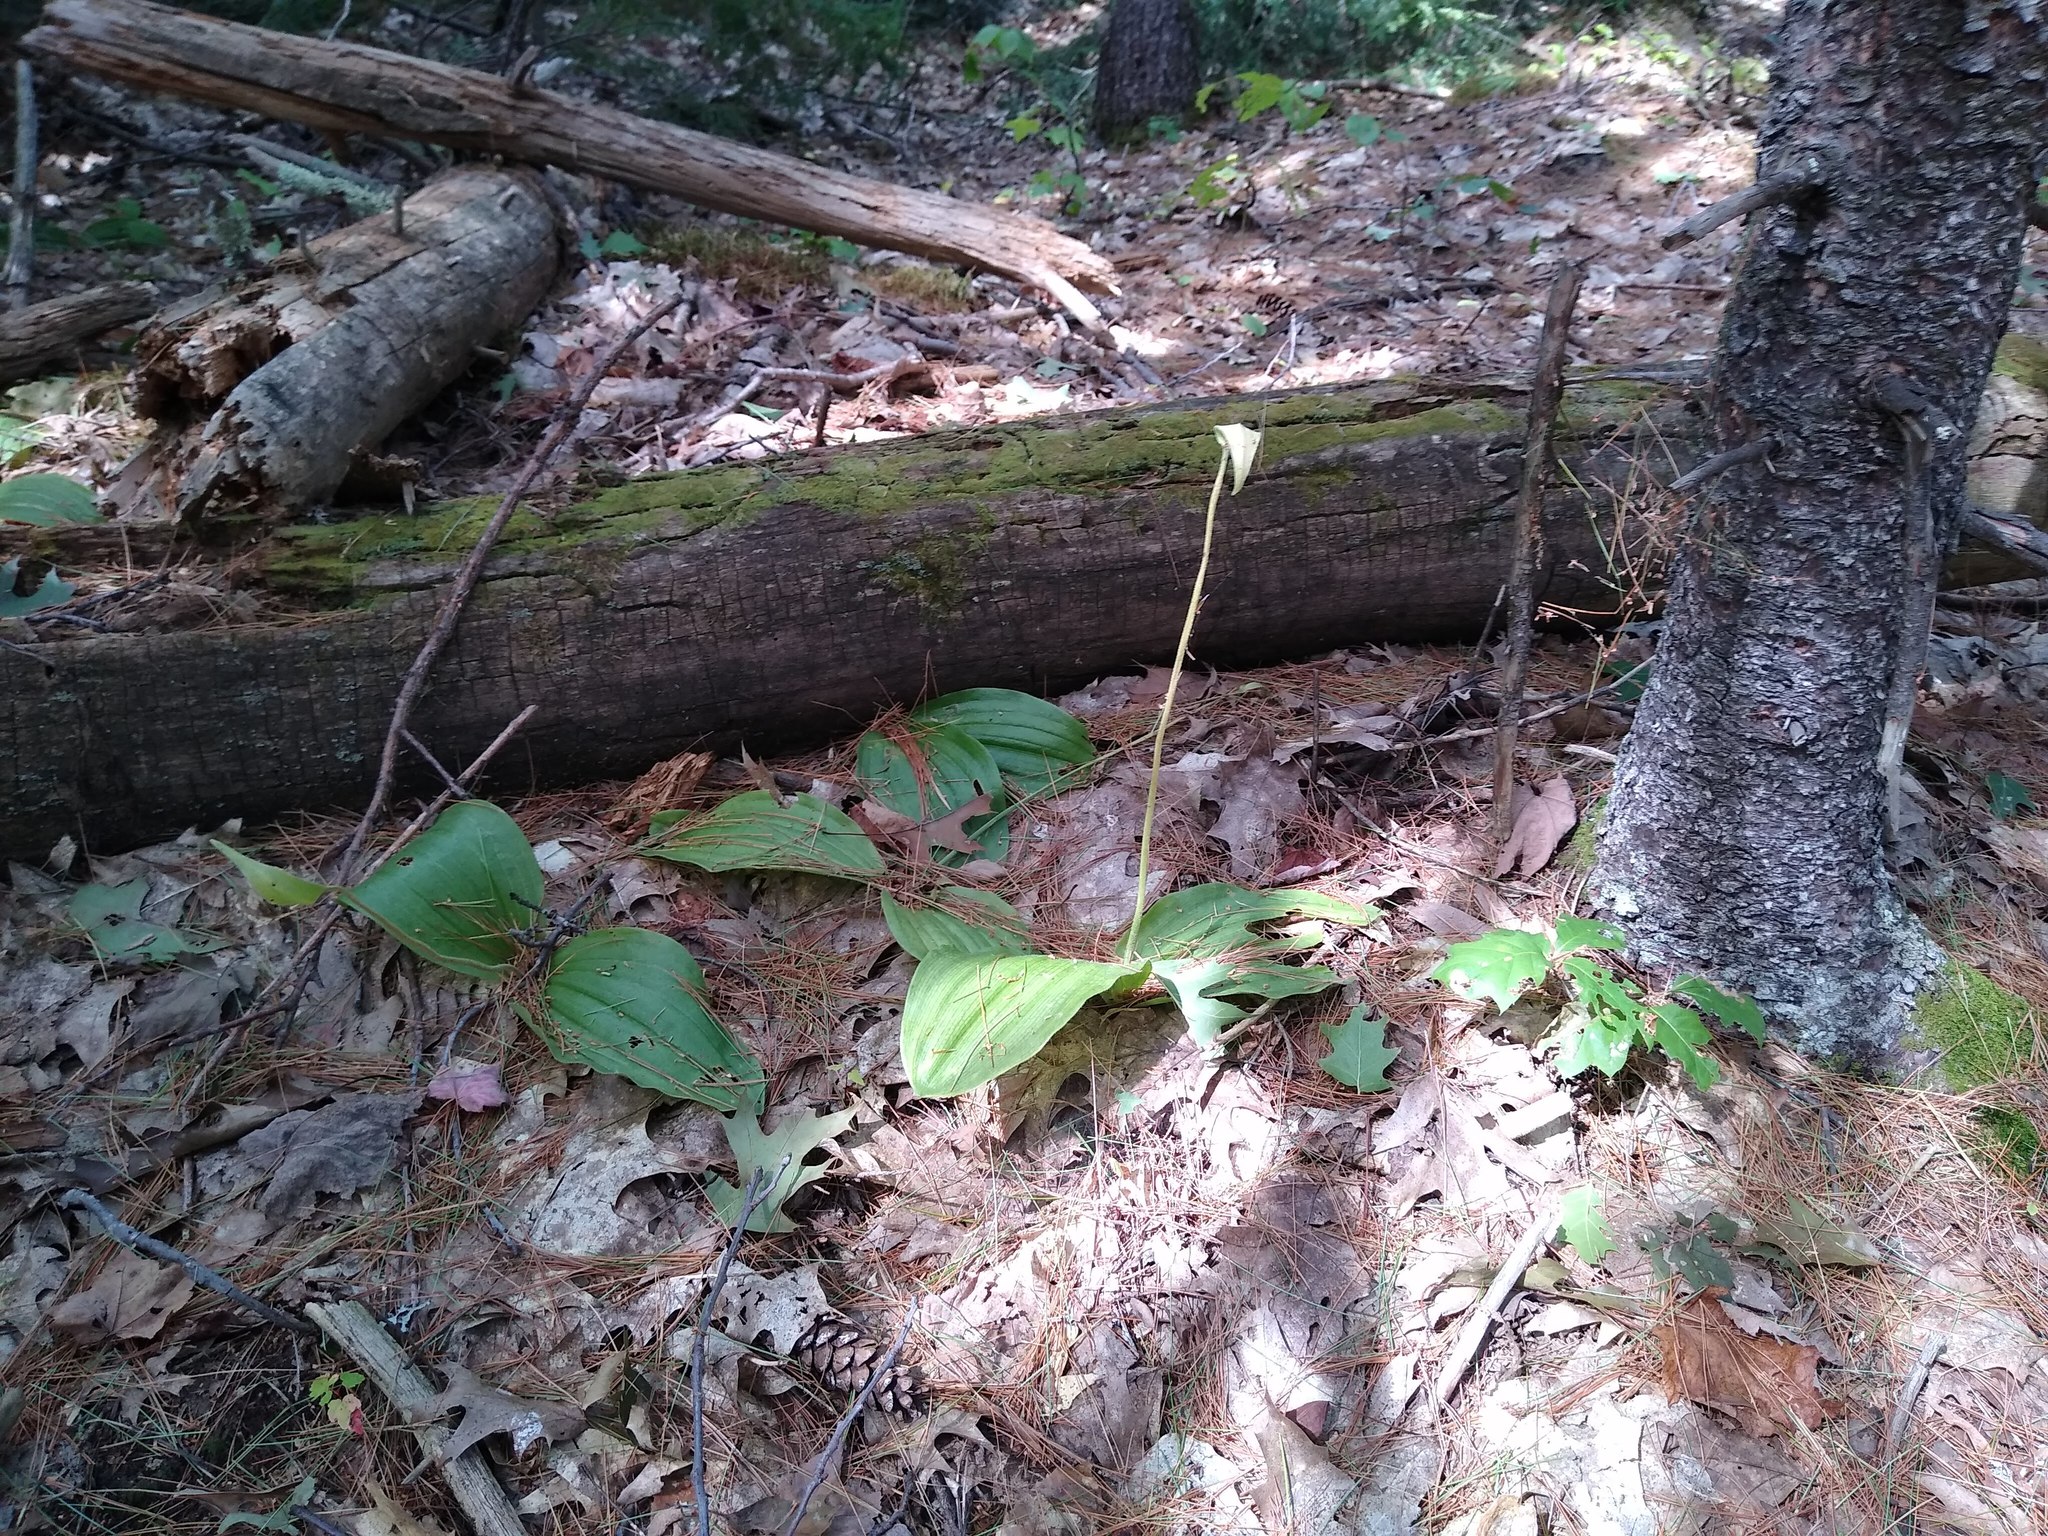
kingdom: Plantae
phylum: Tracheophyta
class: Liliopsida
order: Asparagales
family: Orchidaceae
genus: Cypripedium
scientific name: Cypripedium acaule
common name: Pink lady's-slipper
